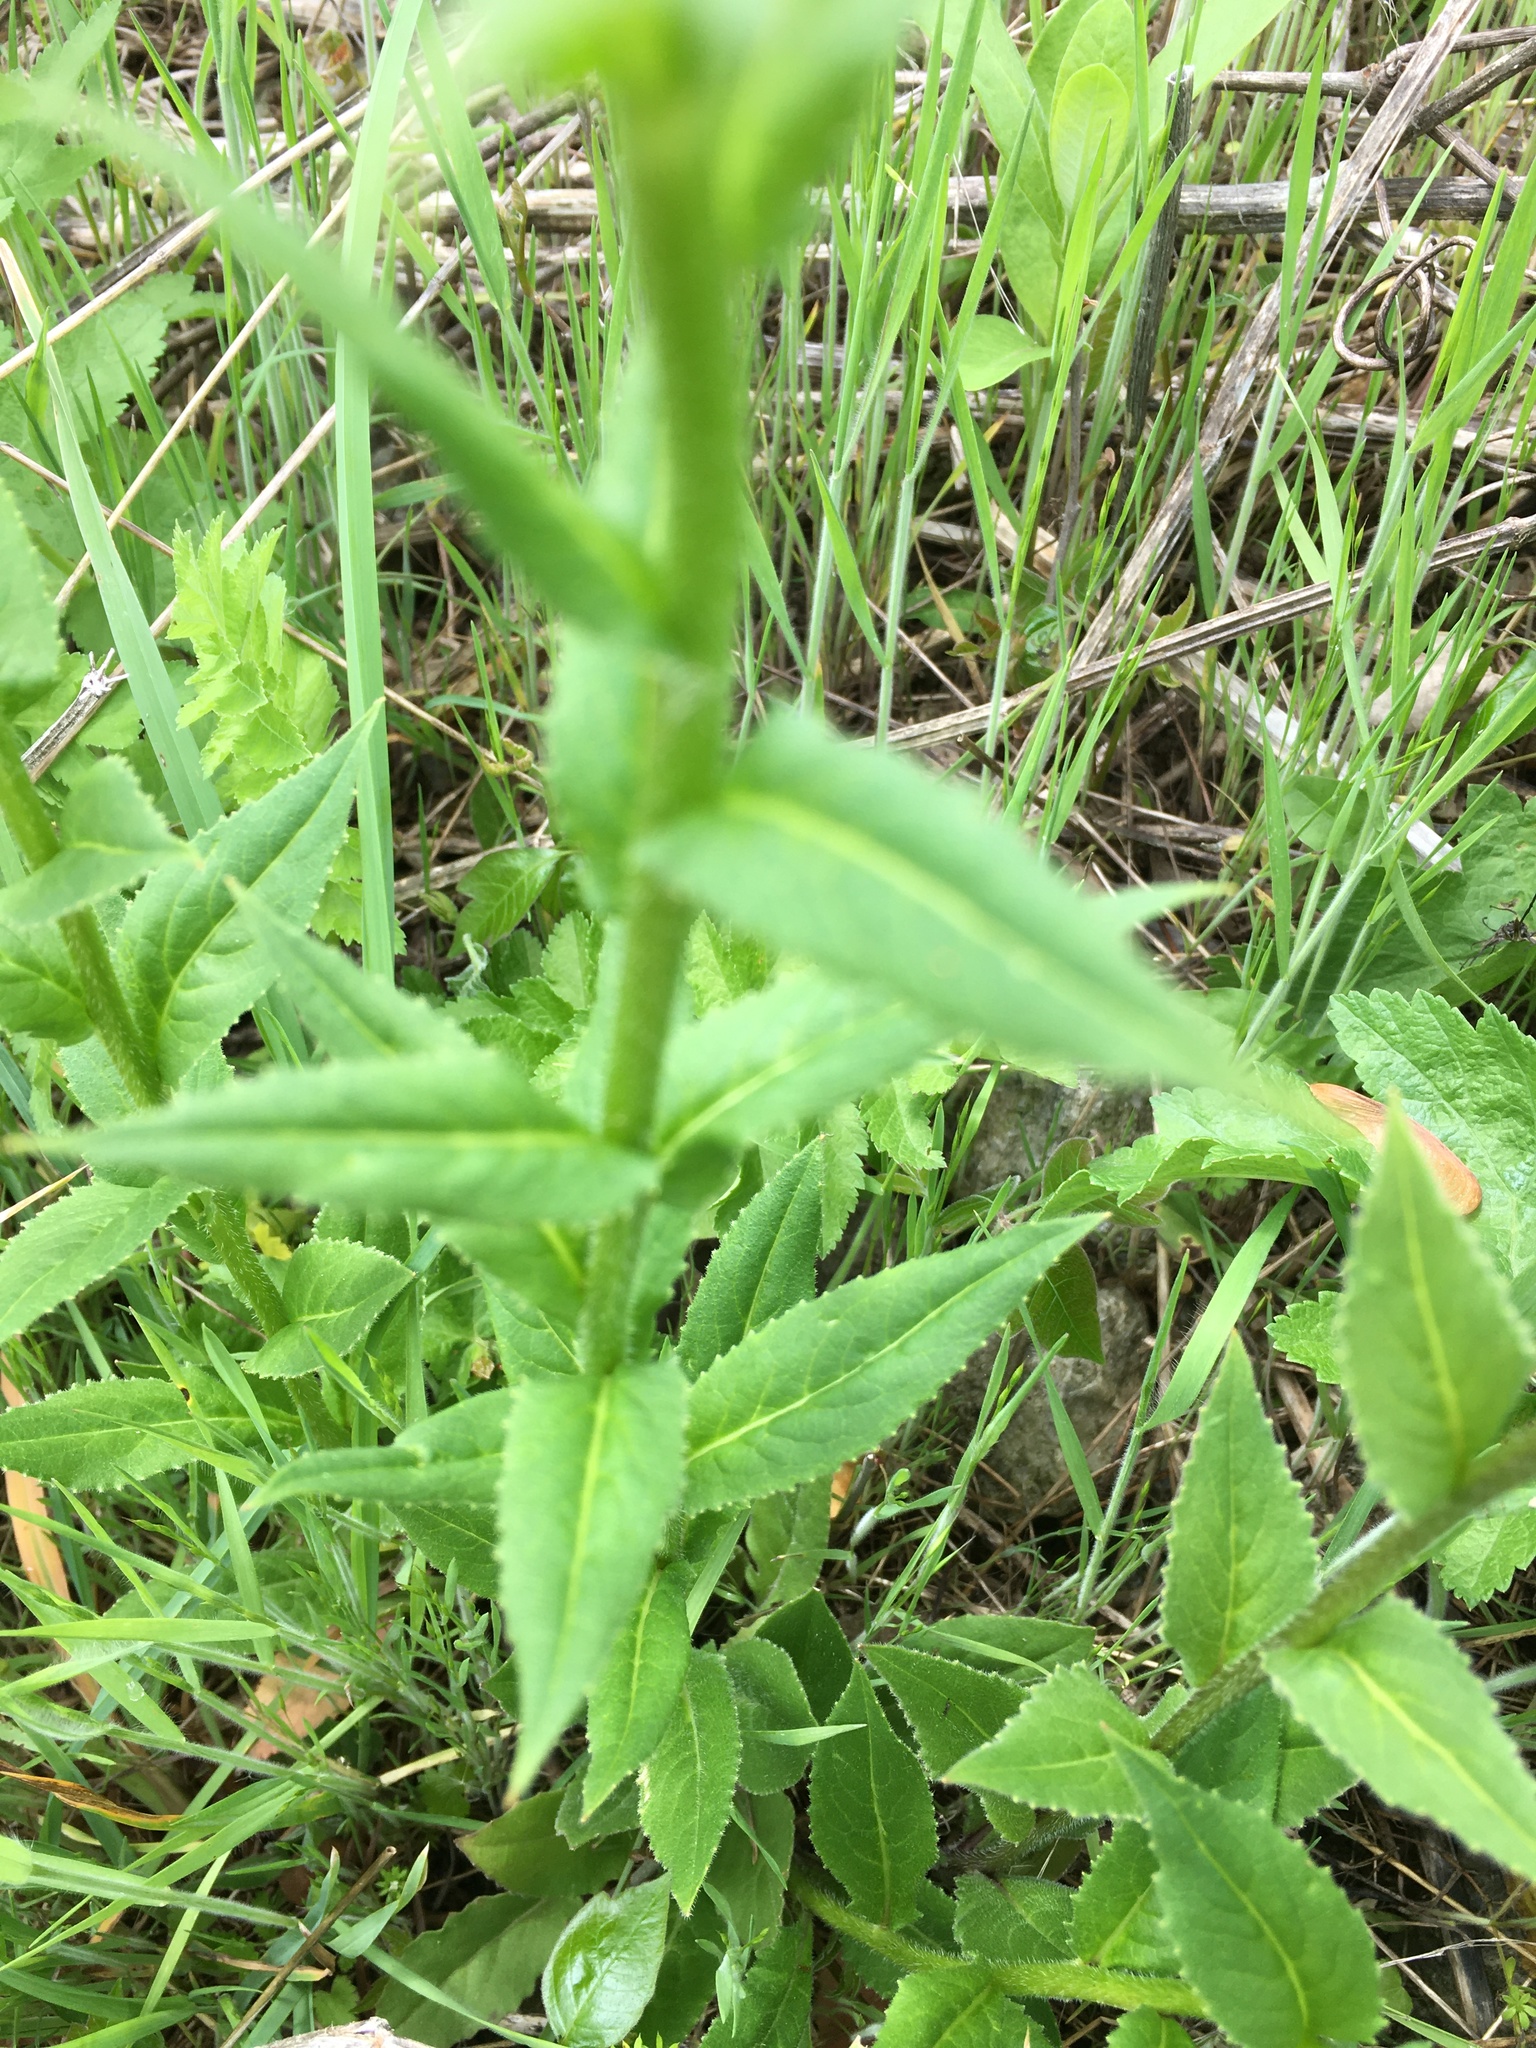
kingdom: Plantae
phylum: Tracheophyta
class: Magnoliopsida
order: Brassicales
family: Brassicaceae
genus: Hesperis
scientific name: Hesperis matronalis
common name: Dame's-violet
